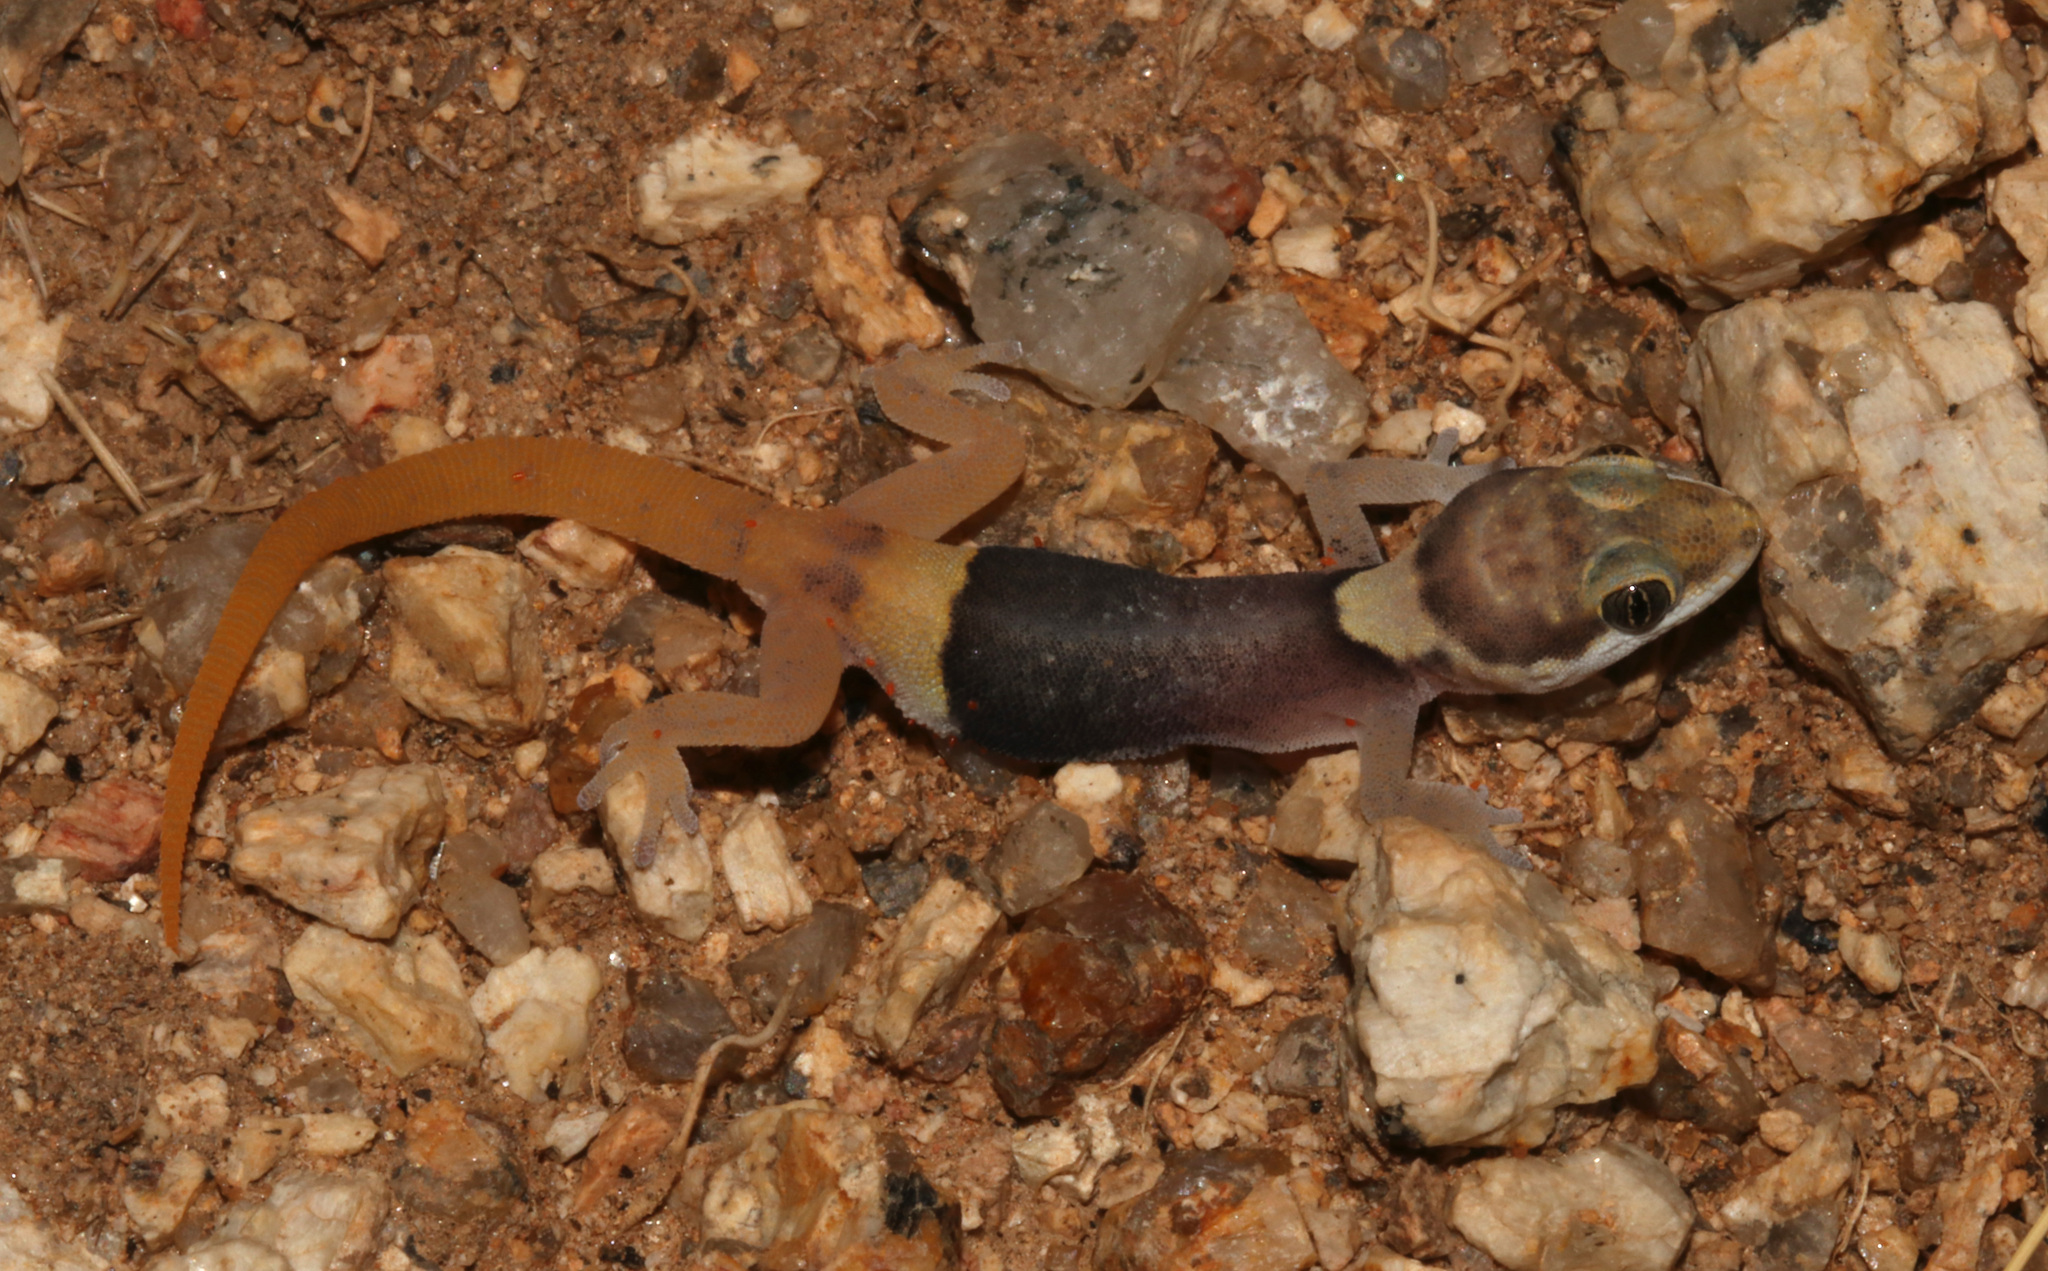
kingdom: Animalia
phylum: Chordata
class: Squamata
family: Gekkonidae
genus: Pachydactylus
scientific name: Pachydactylus bicolor
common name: Two-colored thick-toed gecko
